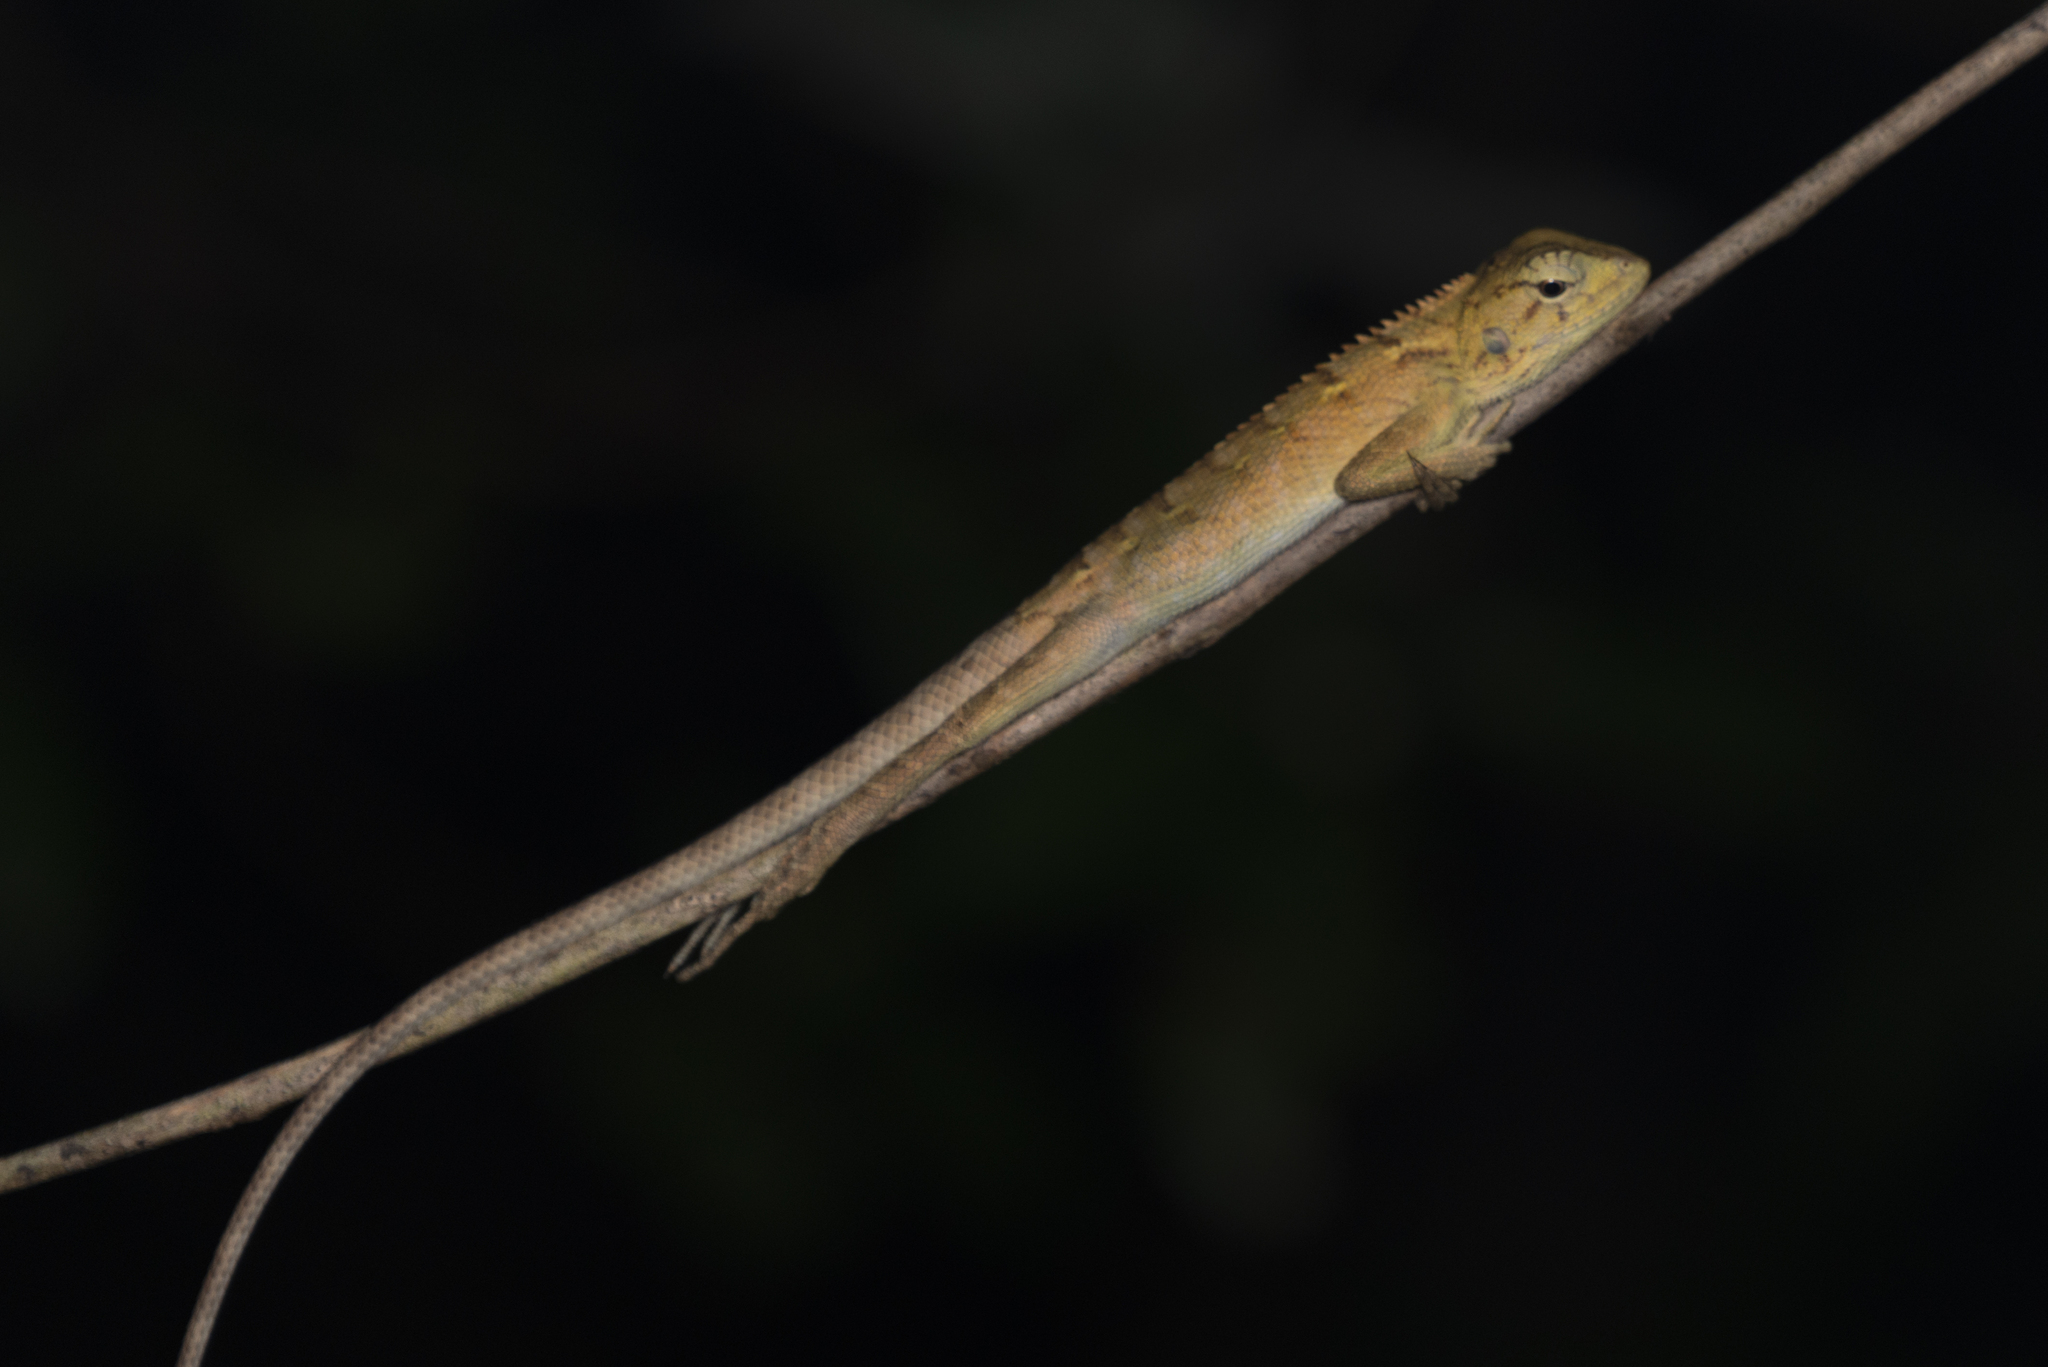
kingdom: Animalia
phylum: Chordata
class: Squamata
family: Agamidae
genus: Calotes
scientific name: Calotes versicolor
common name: Oriental garden lizard
